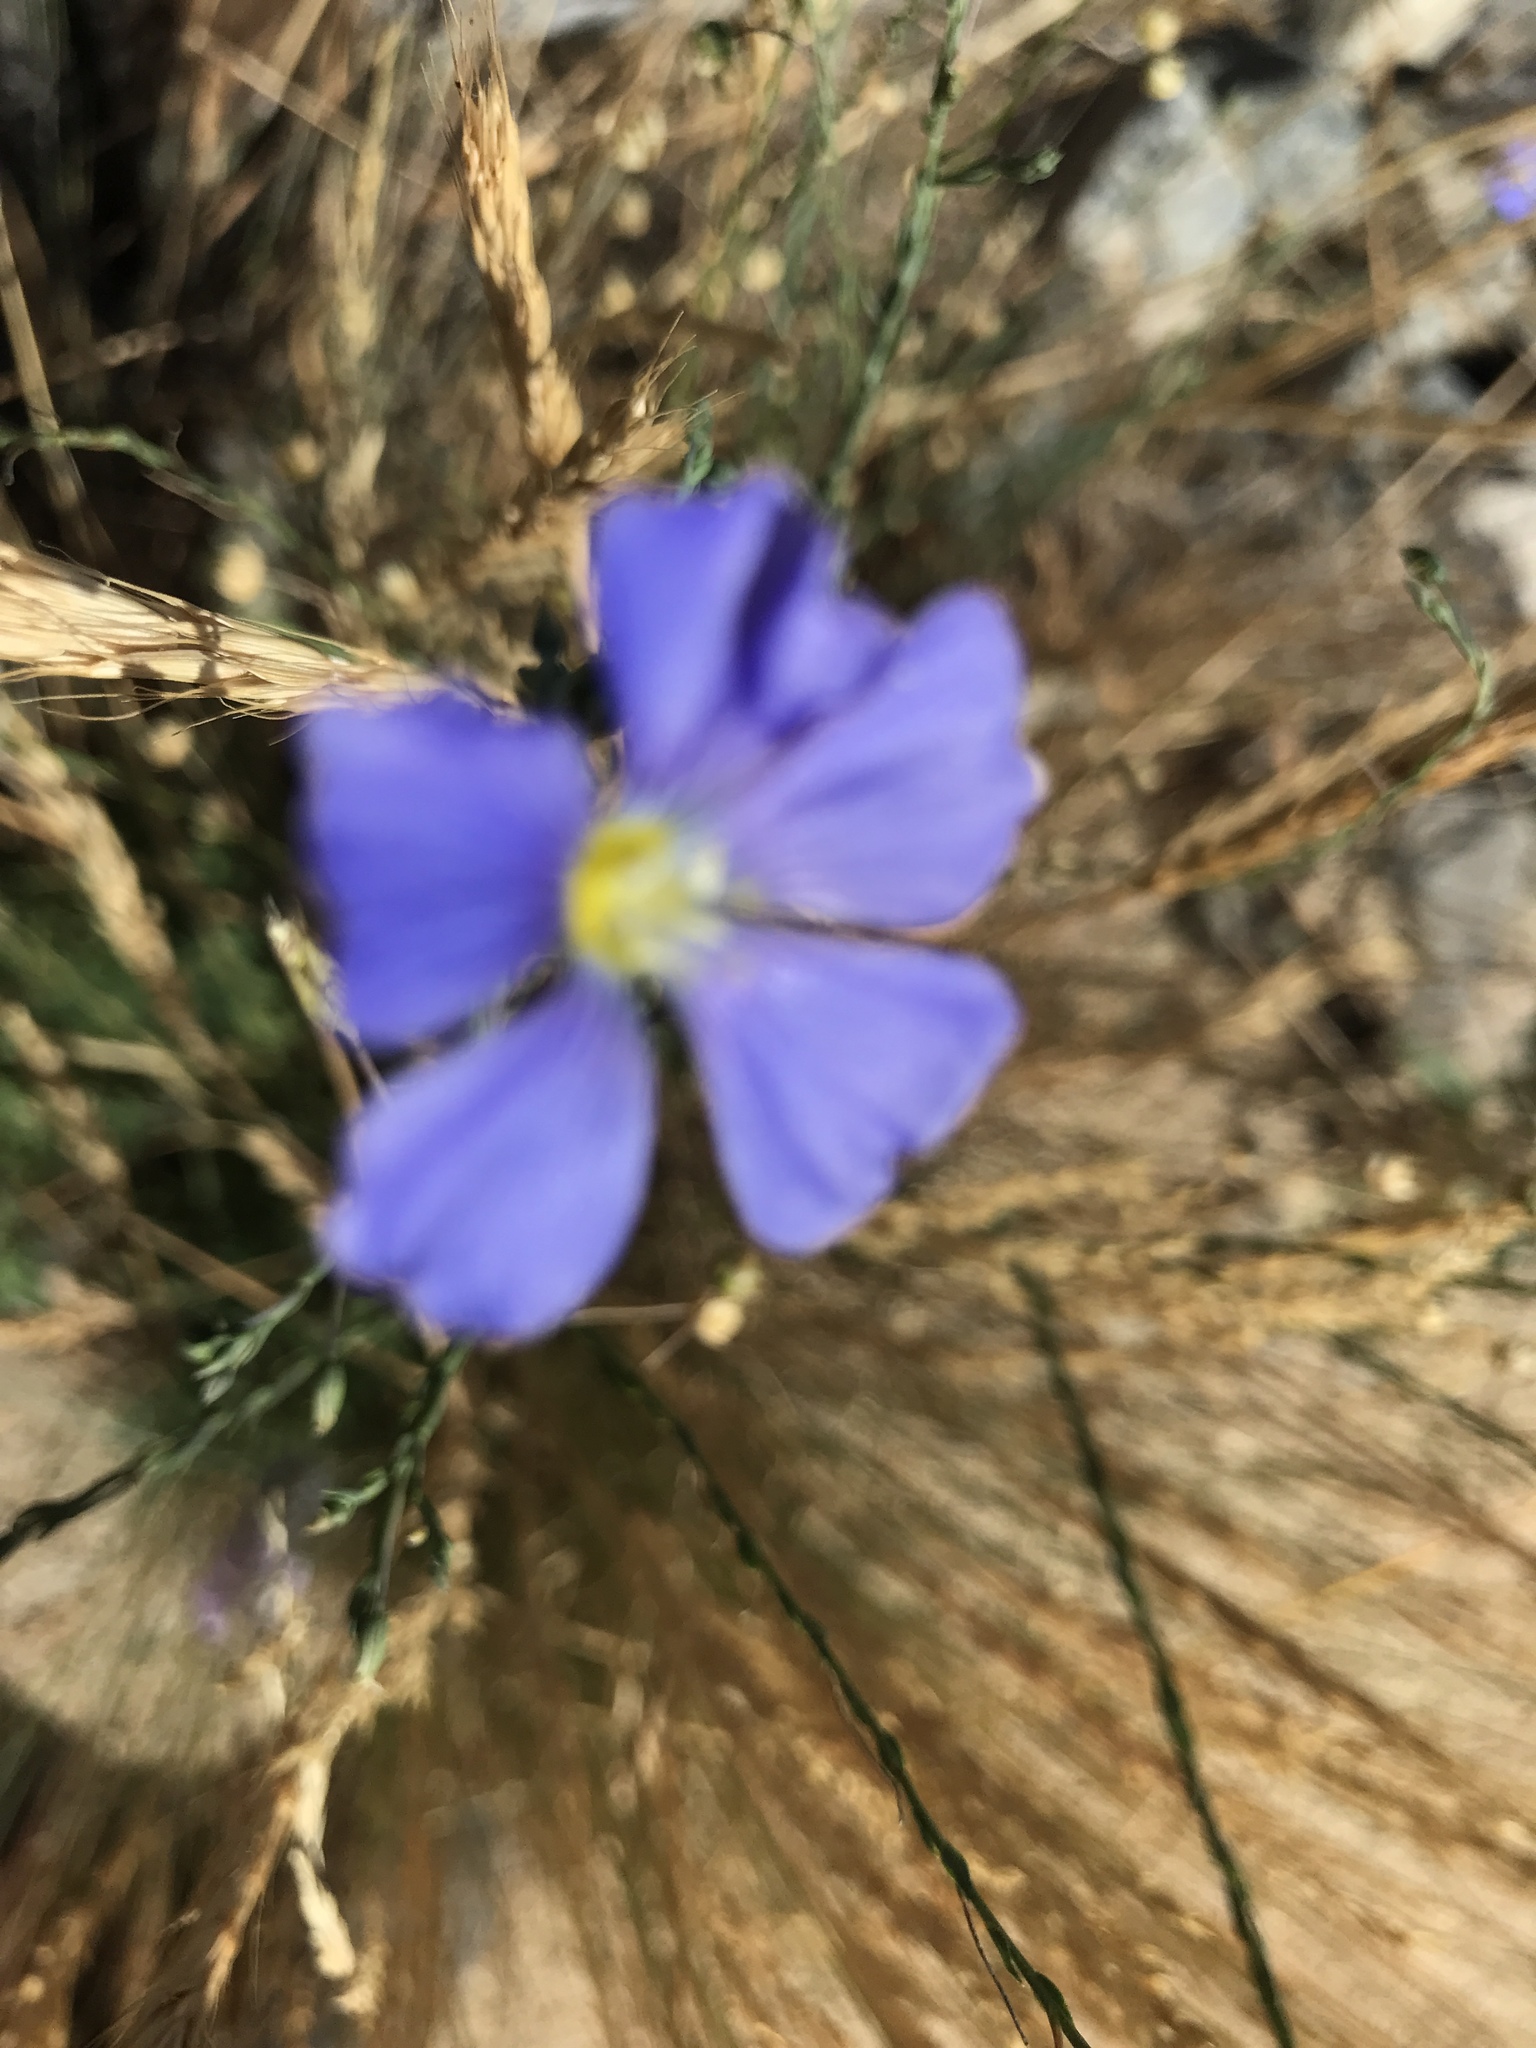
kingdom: Plantae
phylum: Tracheophyta
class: Magnoliopsida
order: Malpighiales
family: Linaceae
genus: Linum
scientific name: Linum lewisii
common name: Prairie flax
